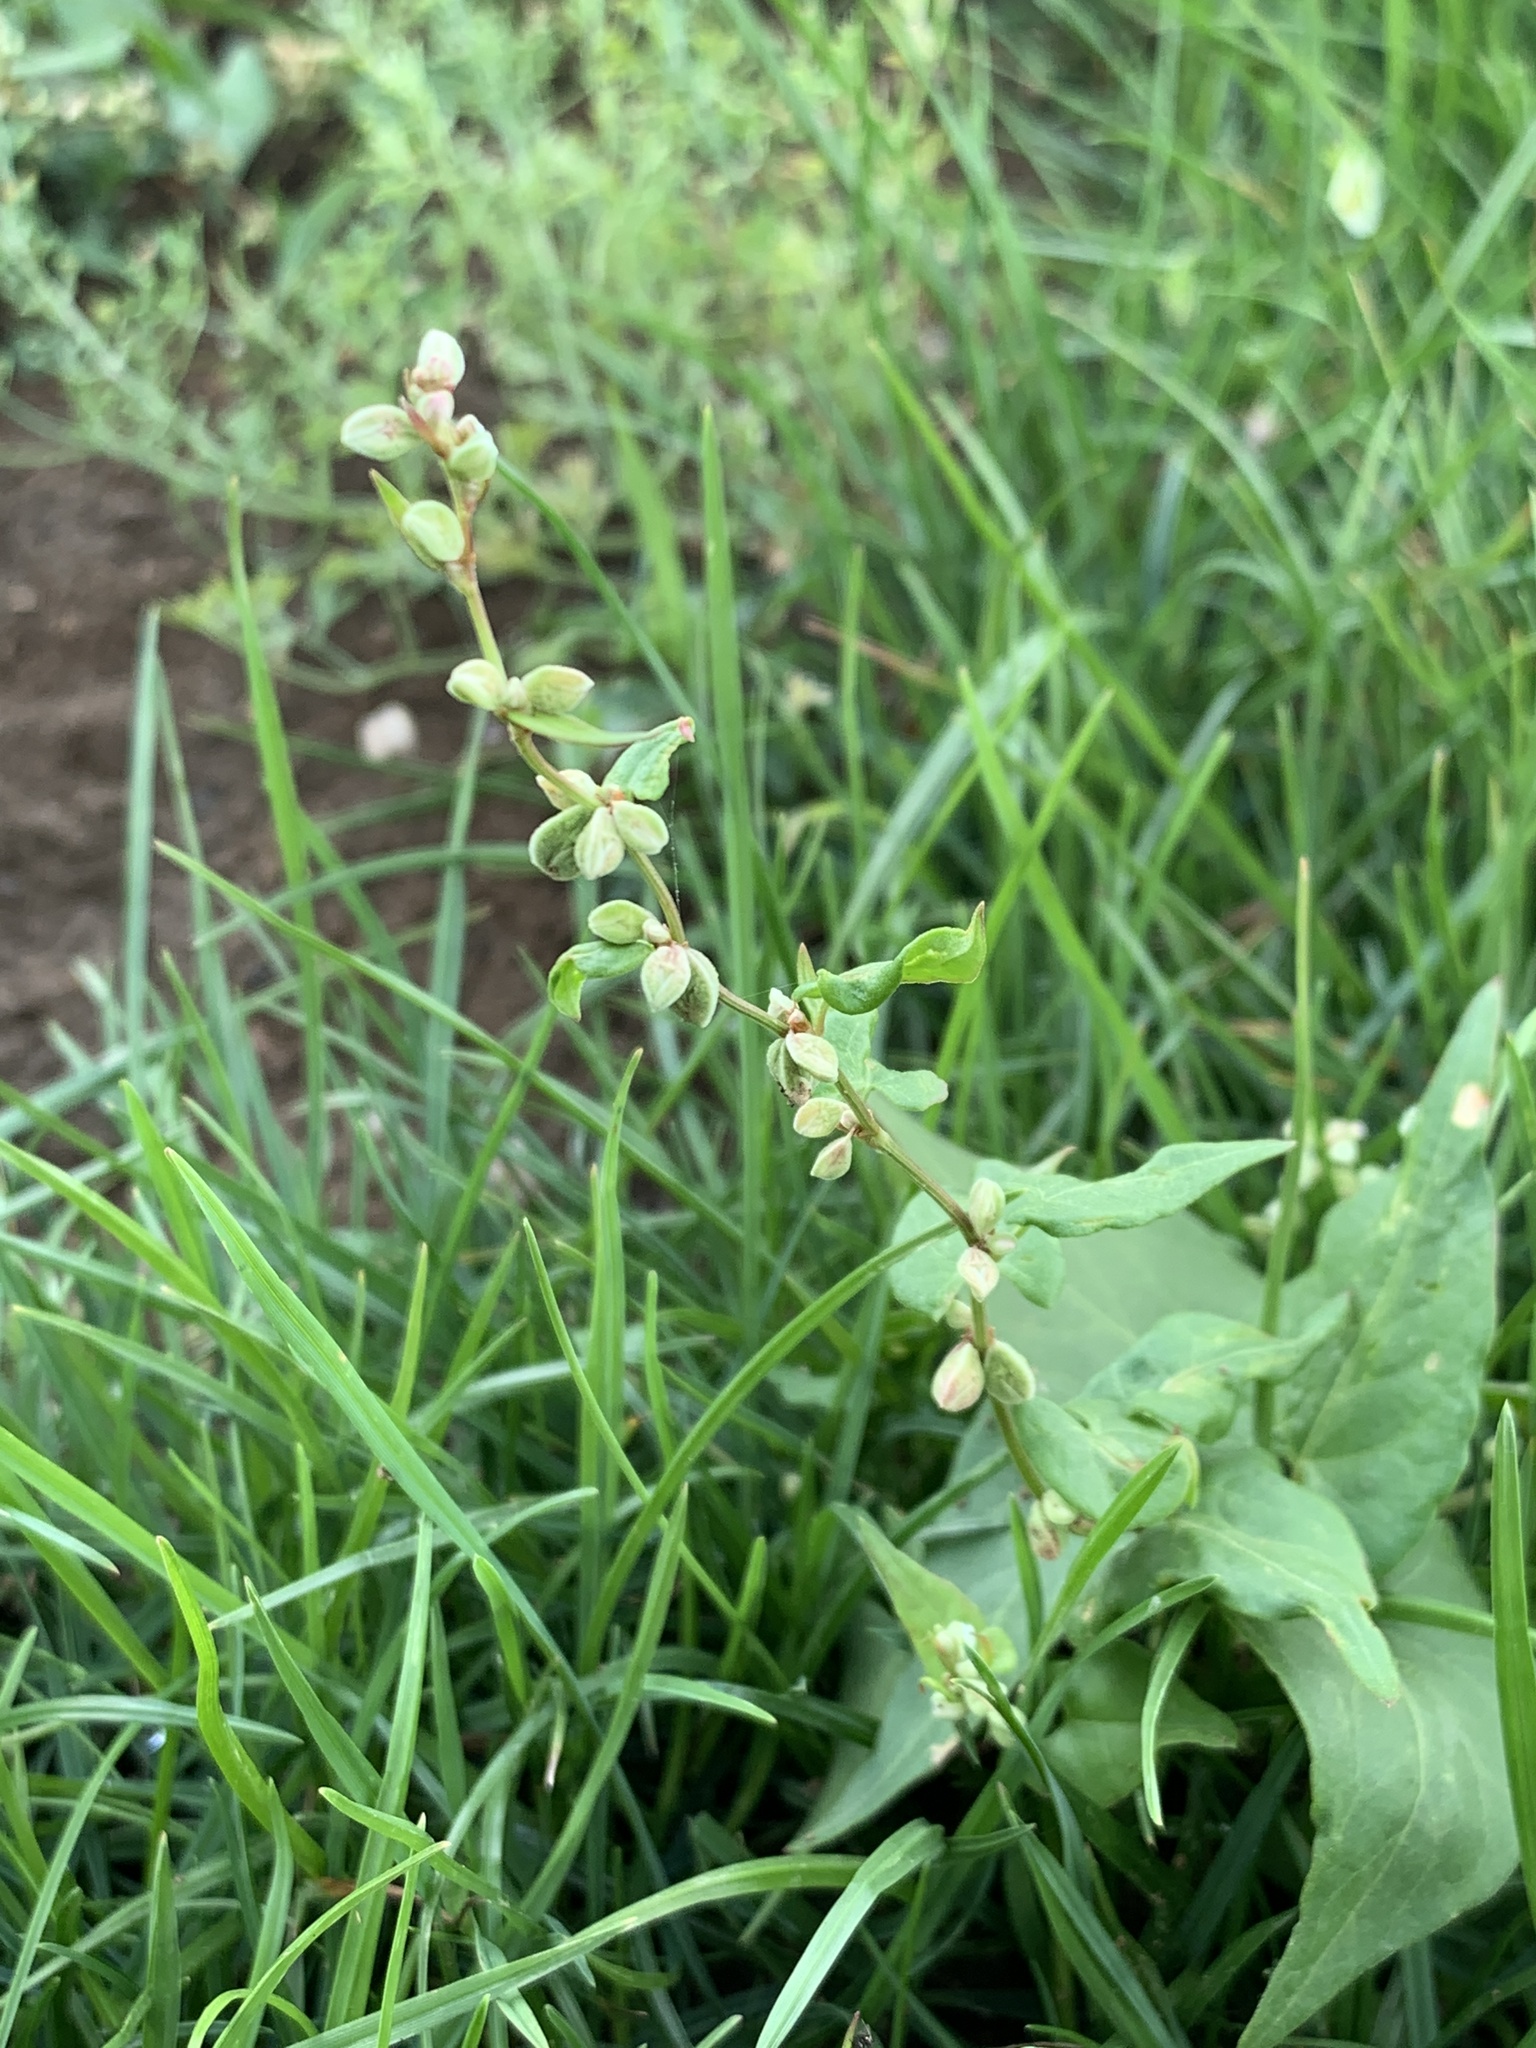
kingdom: Plantae
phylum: Tracheophyta
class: Magnoliopsida
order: Caryophyllales
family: Polygonaceae
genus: Fallopia
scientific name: Fallopia convolvulus
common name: Black bindweed
